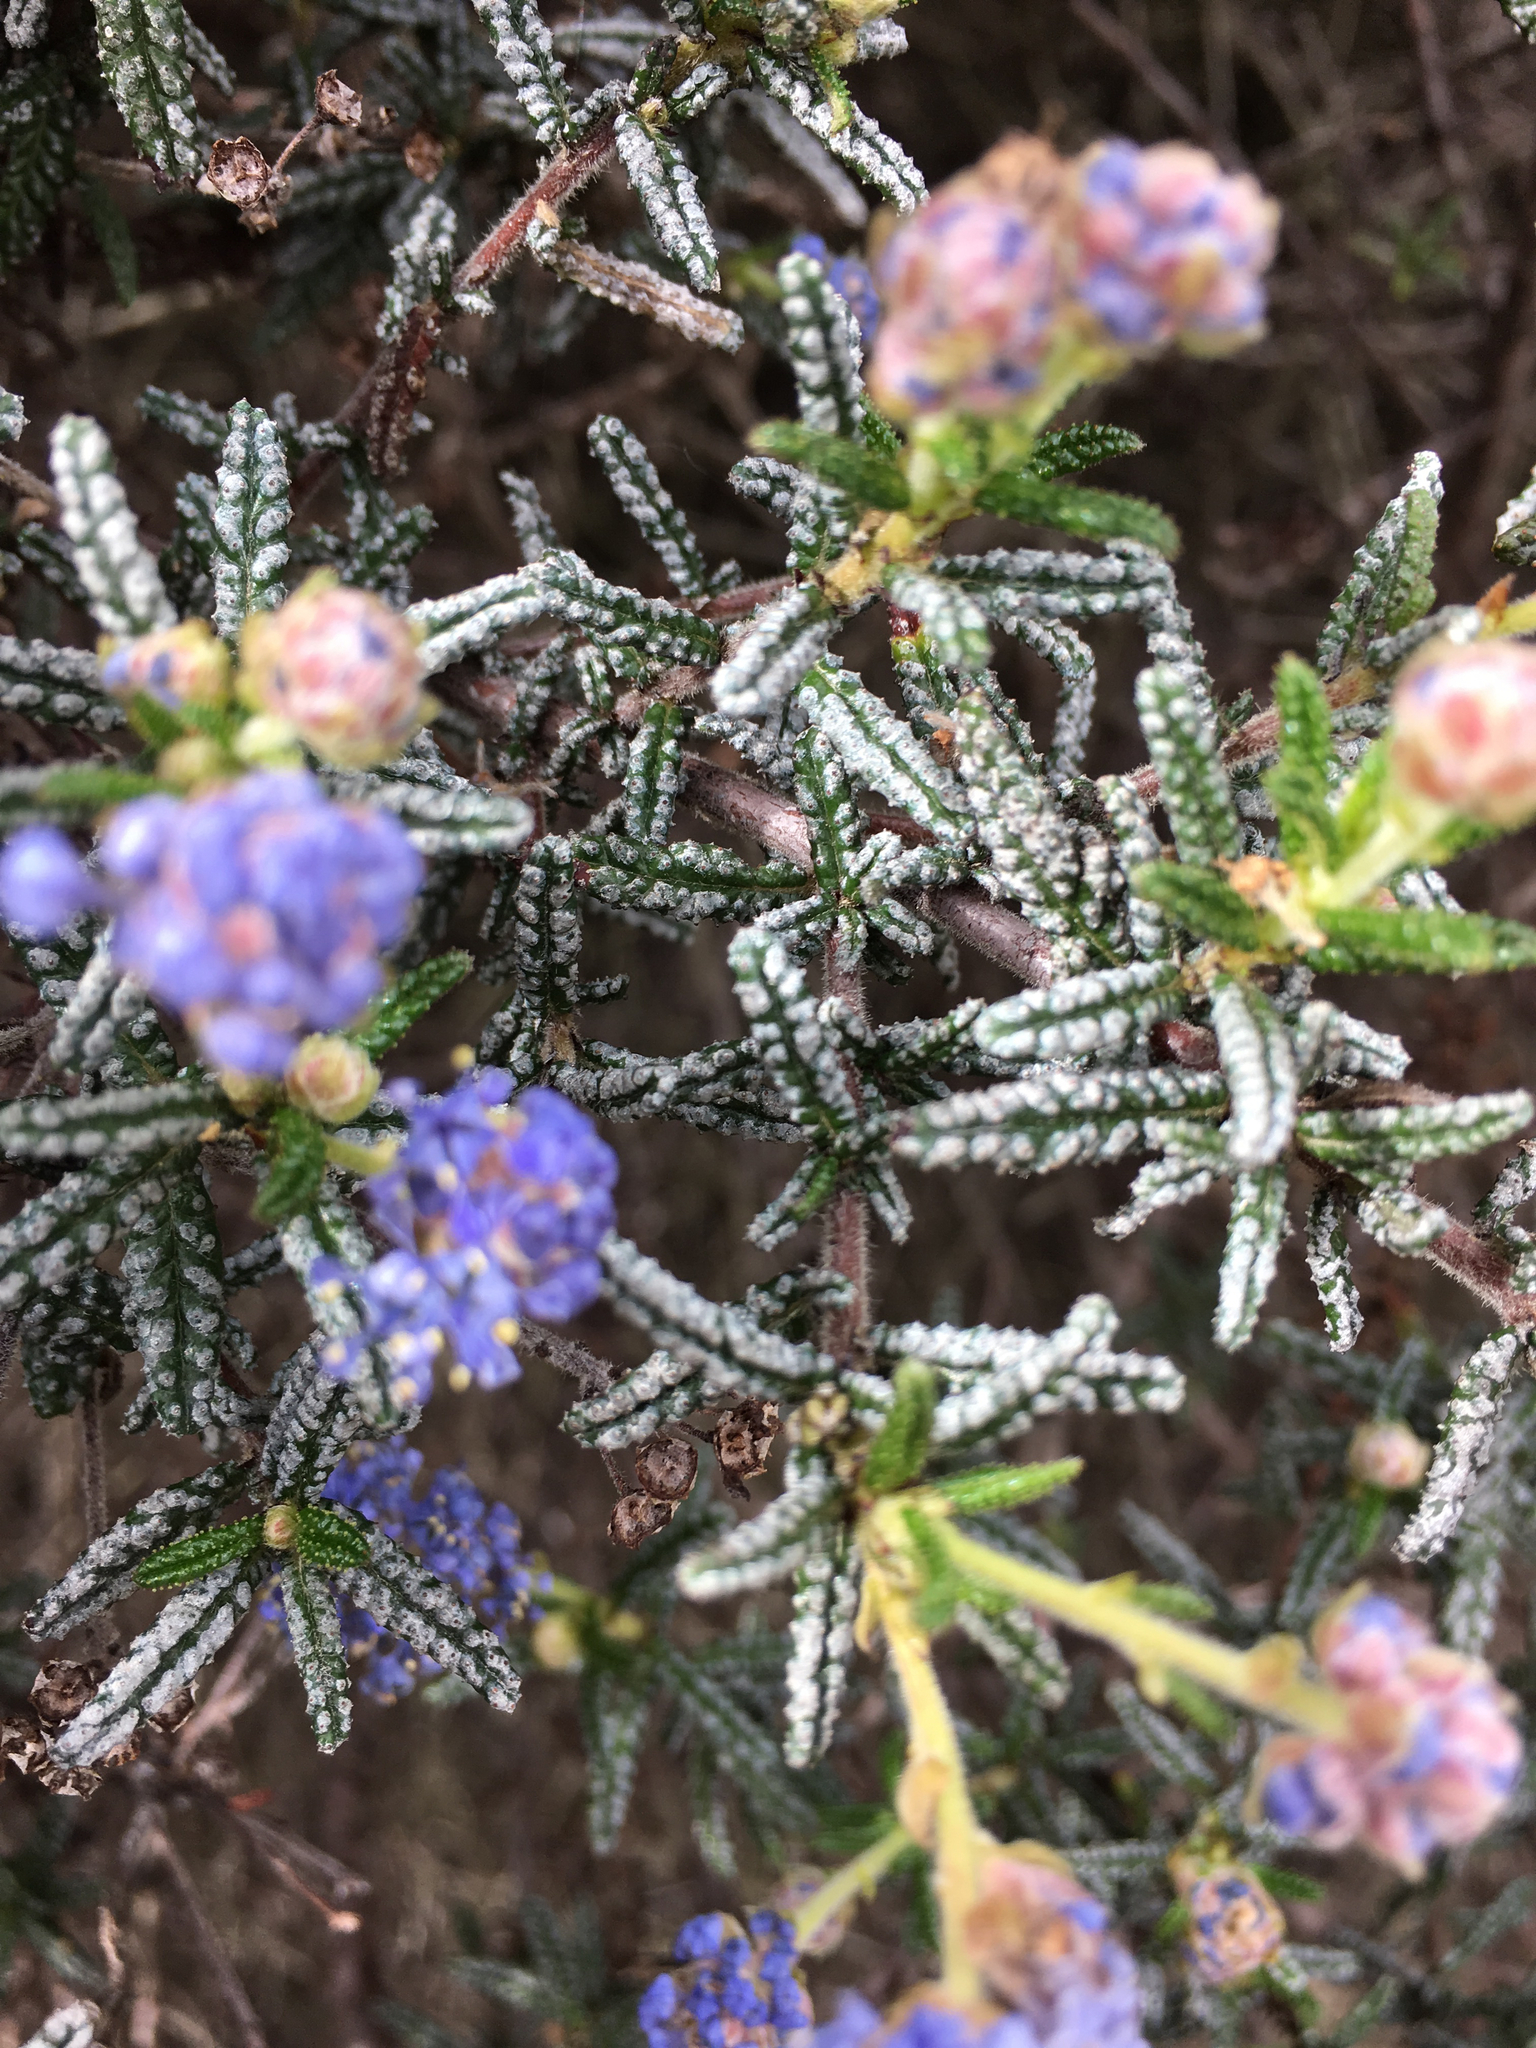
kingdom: Plantae
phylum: Tracheophyta
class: Magnoliopsida
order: Rosales
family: Rhamnaceae
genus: Ceanothus
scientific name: Ceanothus papillosus
